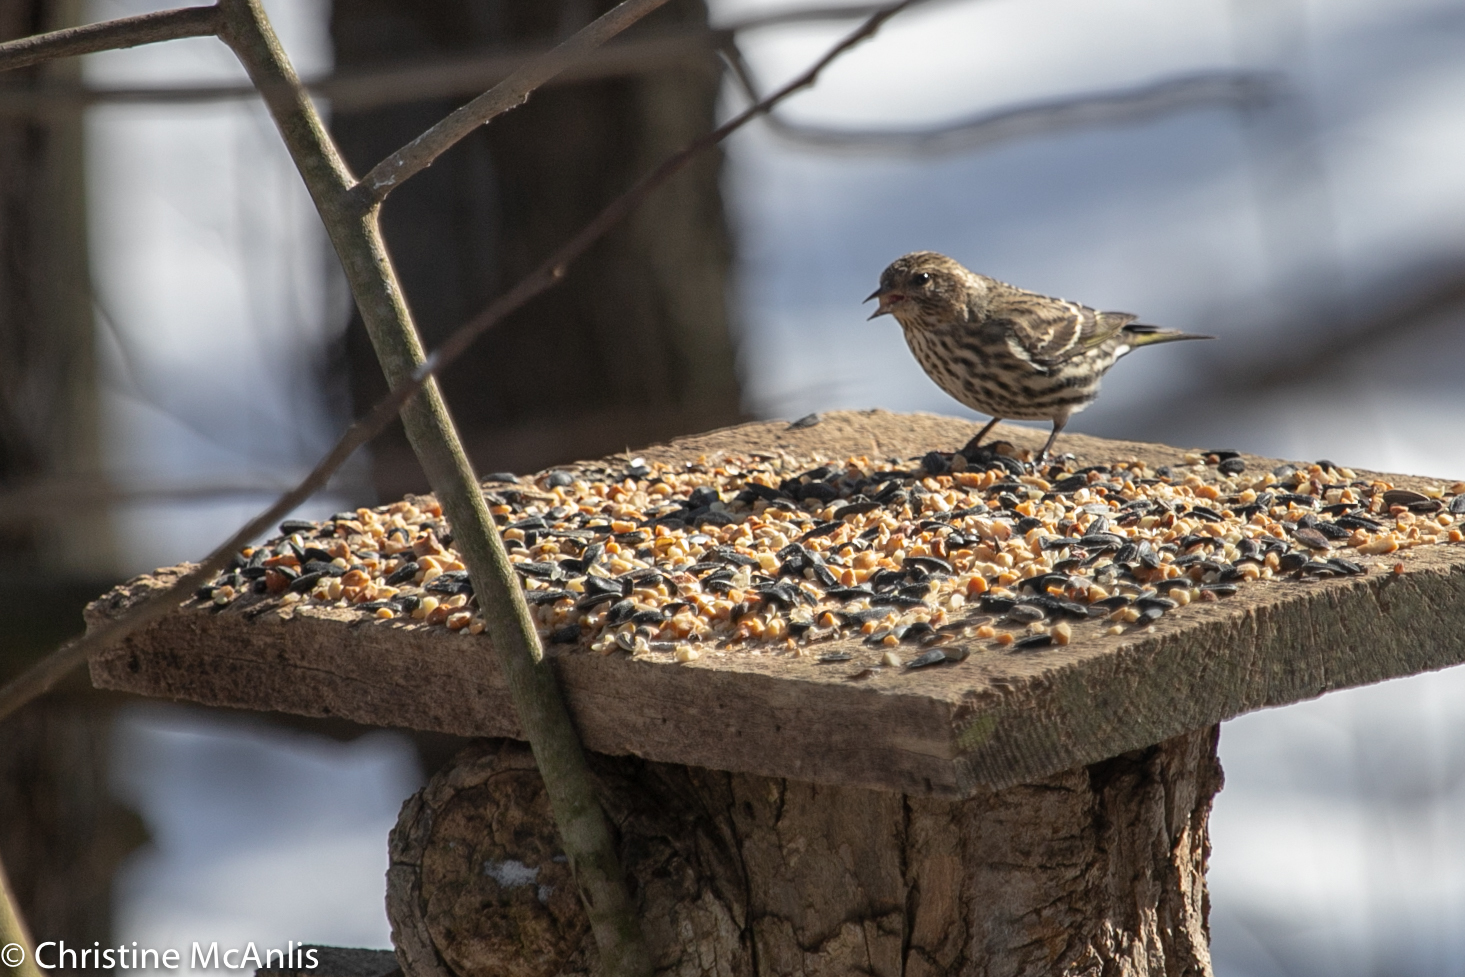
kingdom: Animalia
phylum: Chordata
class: Aves
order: Passeriformes
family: Fringillidae
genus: Spinus
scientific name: Spinus pinus
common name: Pine siskin
